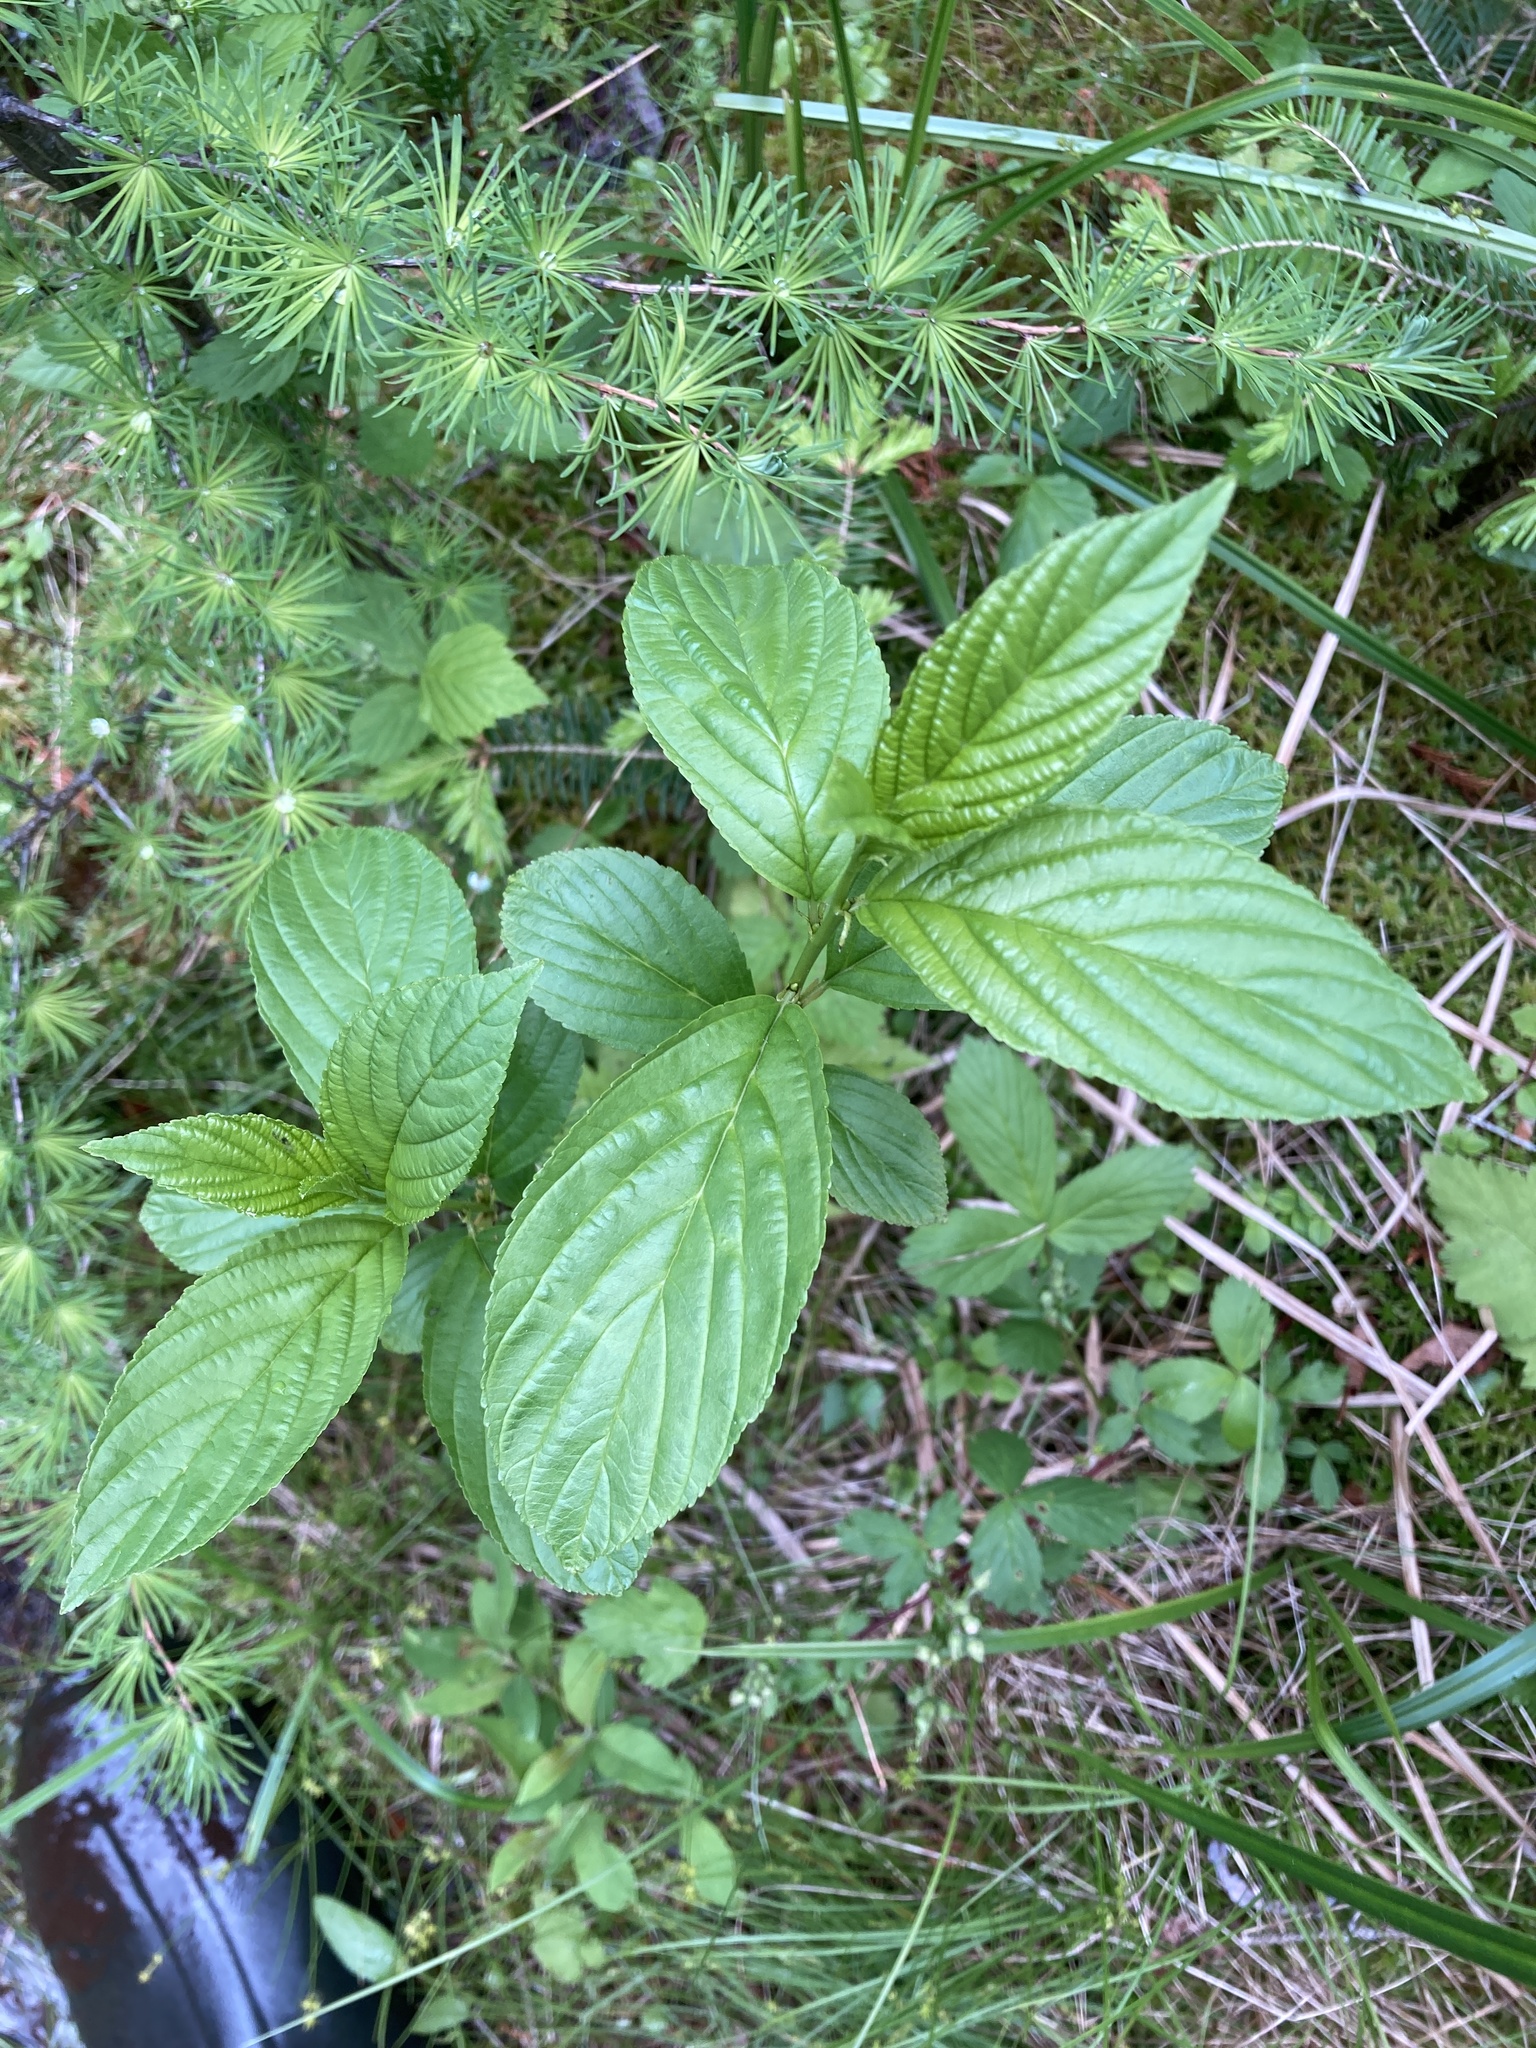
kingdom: Plantae
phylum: Tracheophyta
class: Magnoliopsida
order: Rosales
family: Rhamnaceae
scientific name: Rhamnaceae
